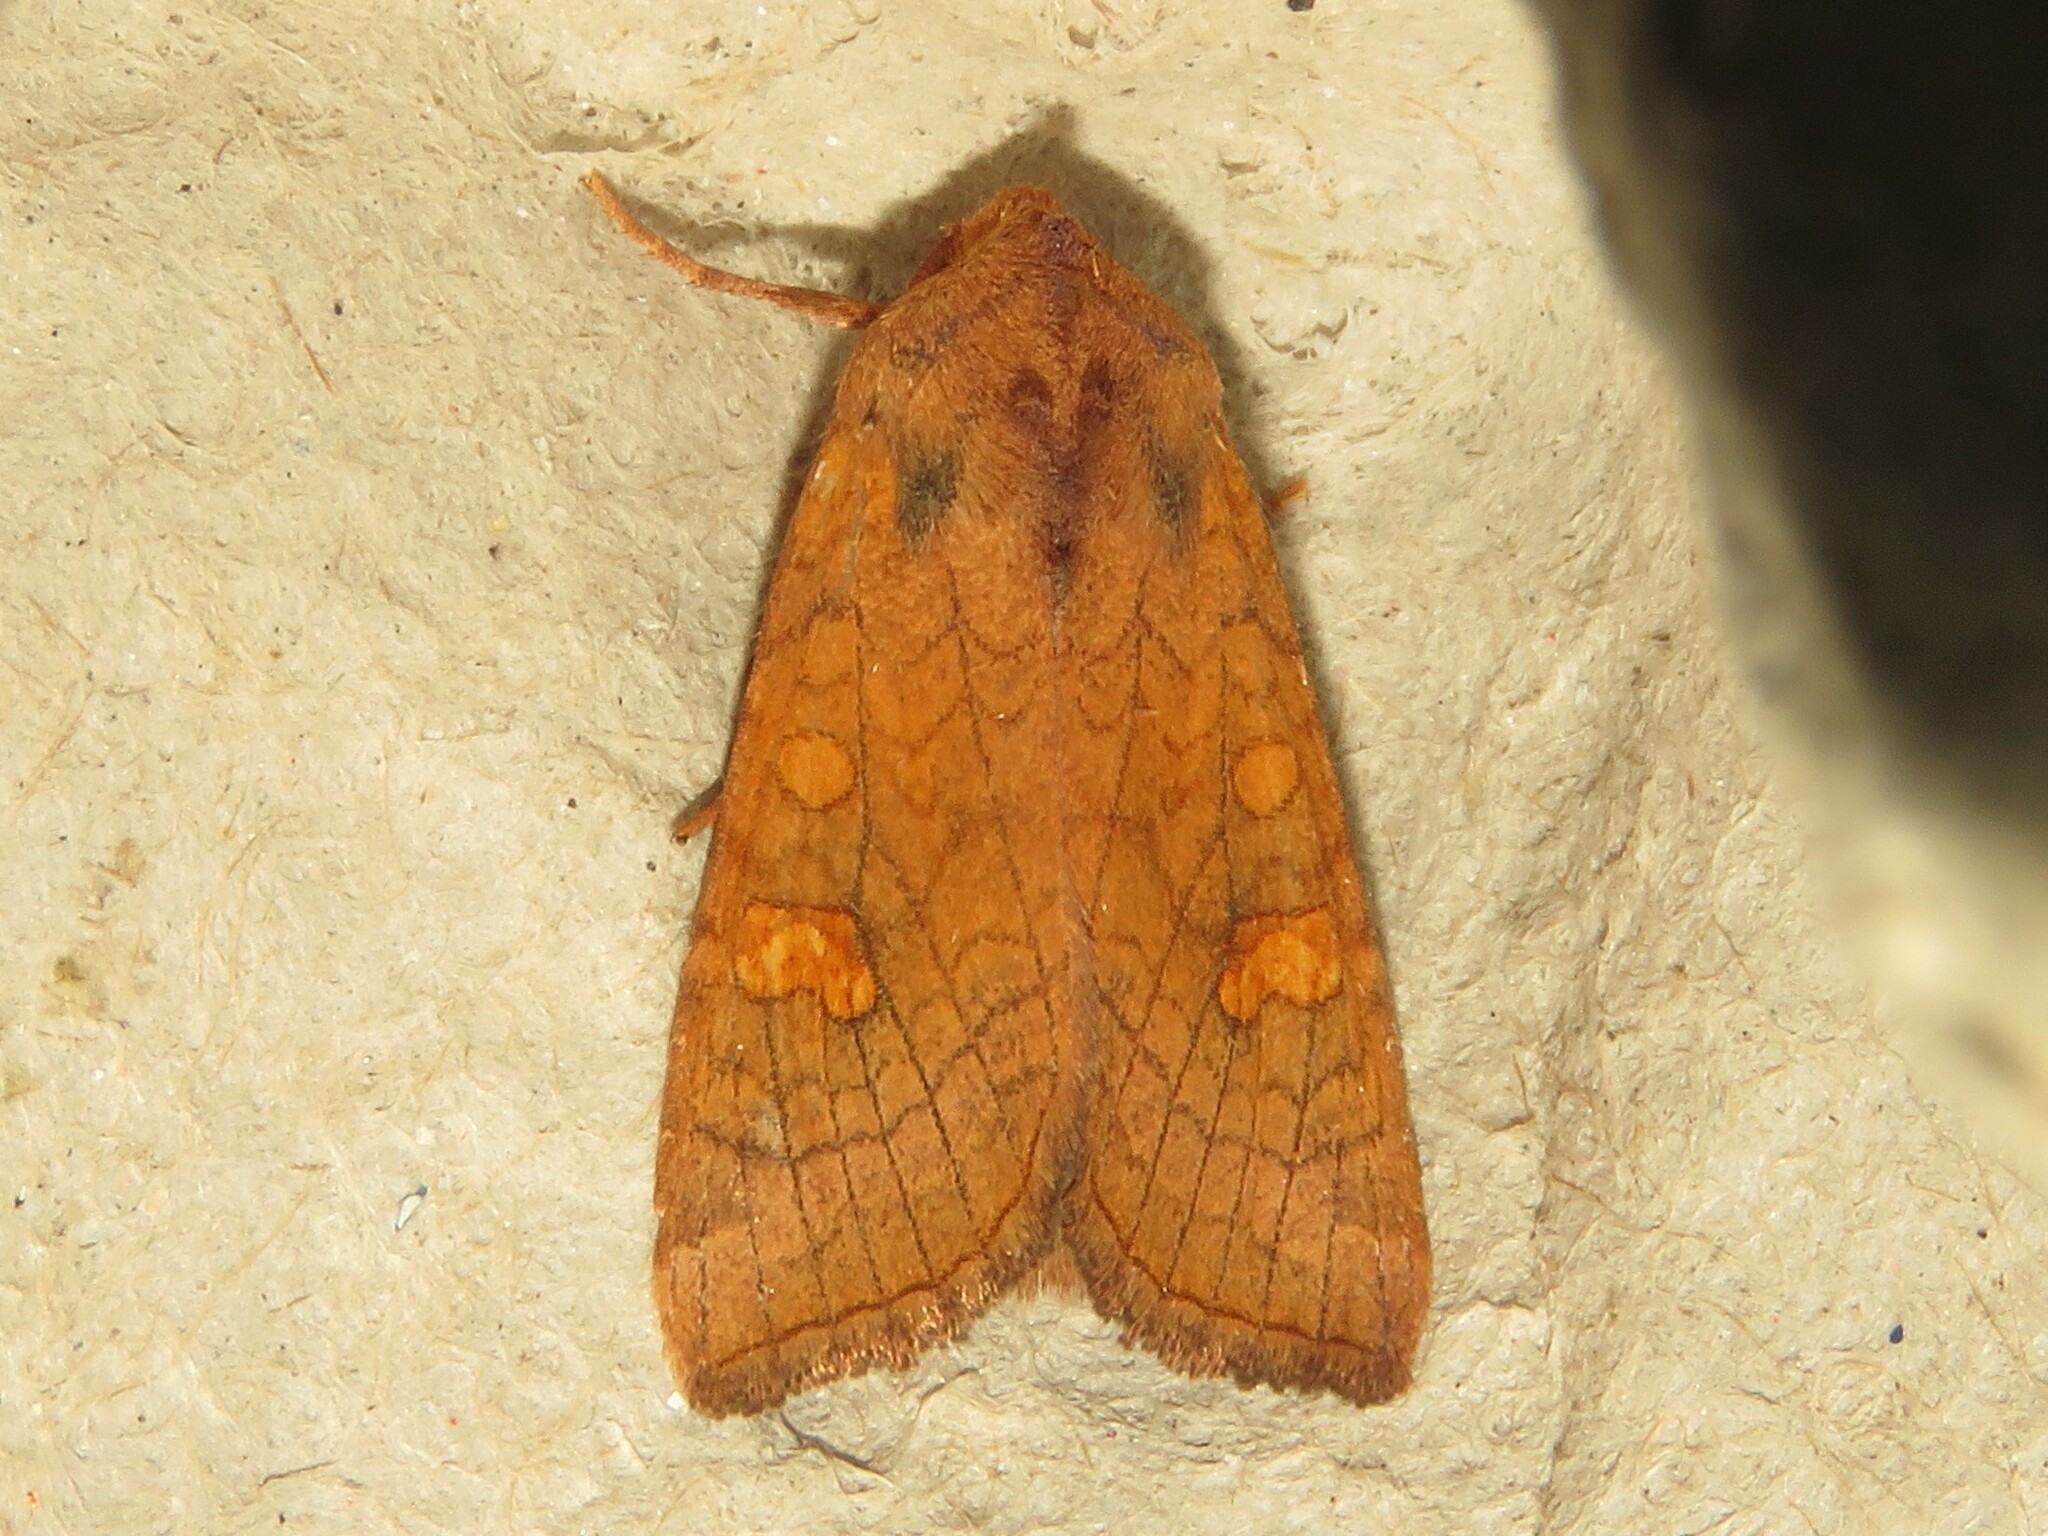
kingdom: Animalia
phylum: Arthropoda
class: Insecta
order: Lepidoptera
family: Noctuidae
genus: Amphipoea
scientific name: Amphipoea americana
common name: American ear moth
